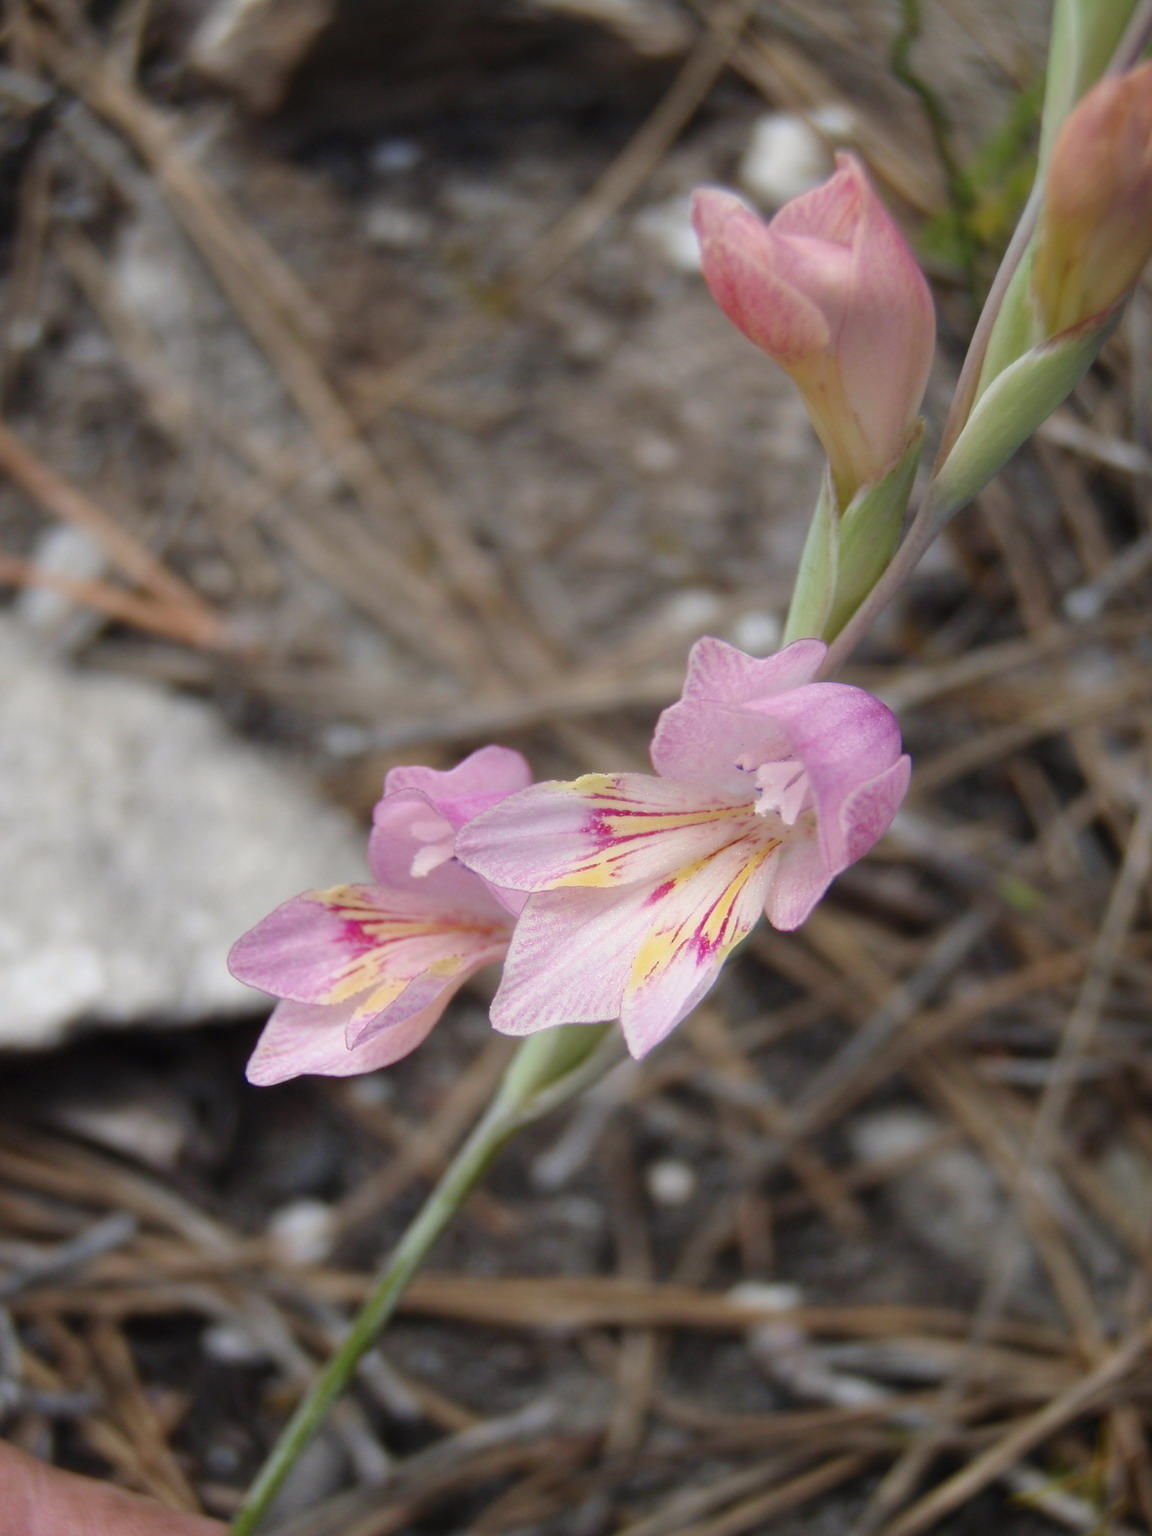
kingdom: Plantae
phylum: Tracheophyta
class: Liliopsida
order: Asparagales
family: Iridaceae
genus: Gladiolus
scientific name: Gladiolus brevifolius
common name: March pypie
